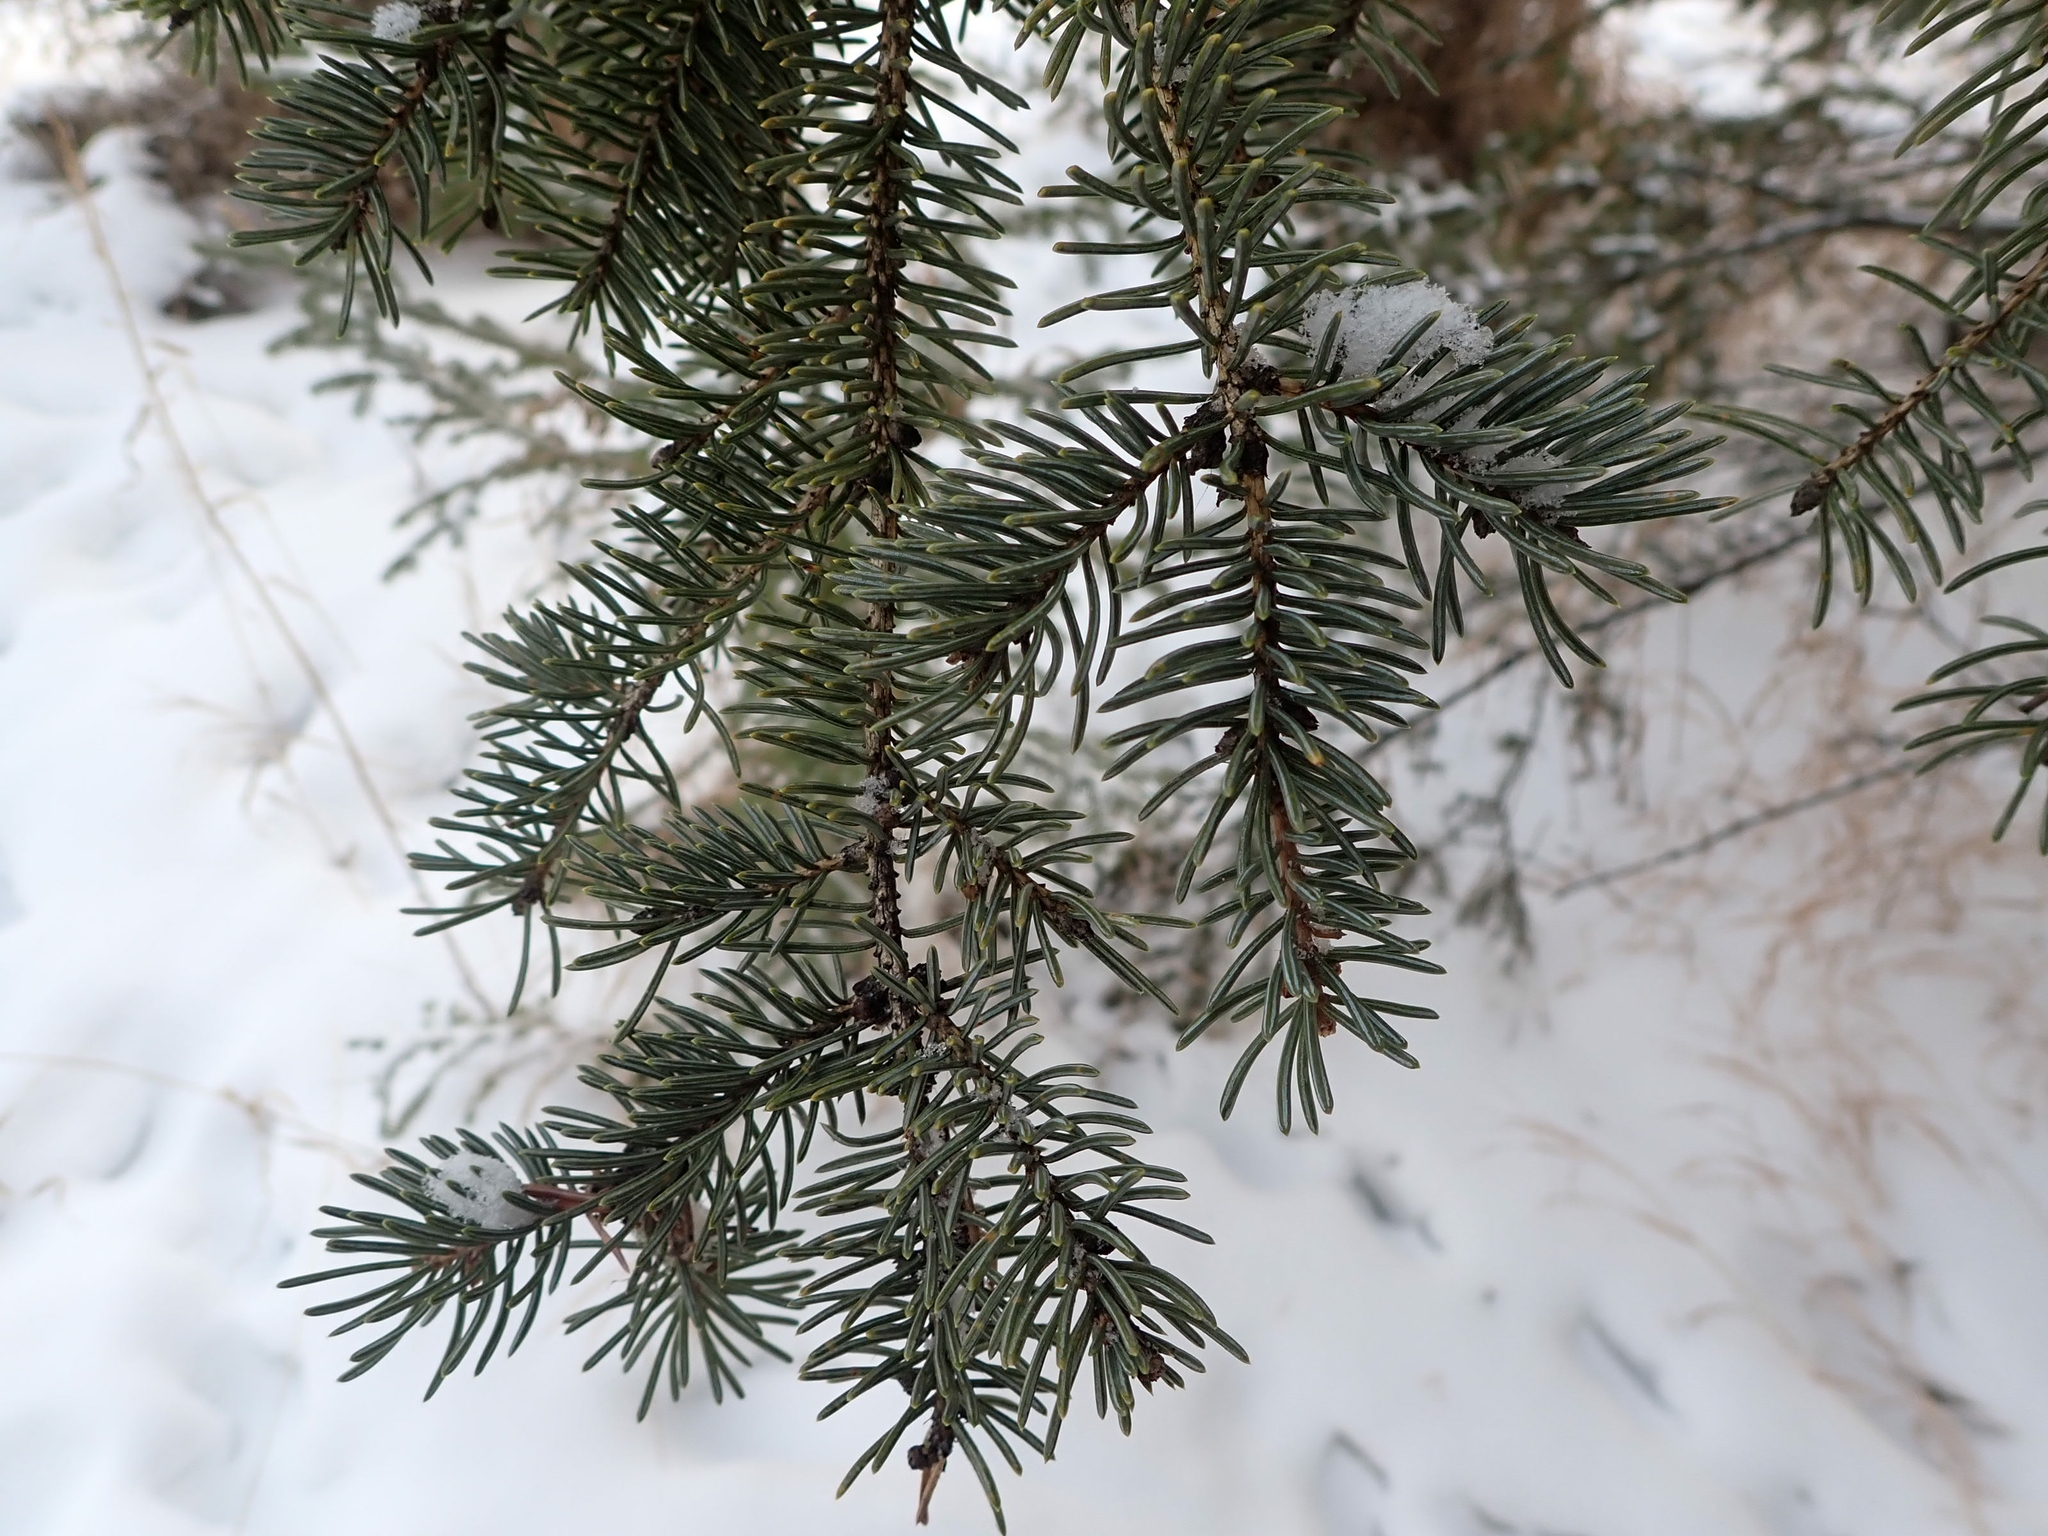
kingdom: Plantae
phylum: Tracheophyta
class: Pinopsida
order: Pinales
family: Pinaceae
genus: Picea
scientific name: Picea glauca
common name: White spruce
